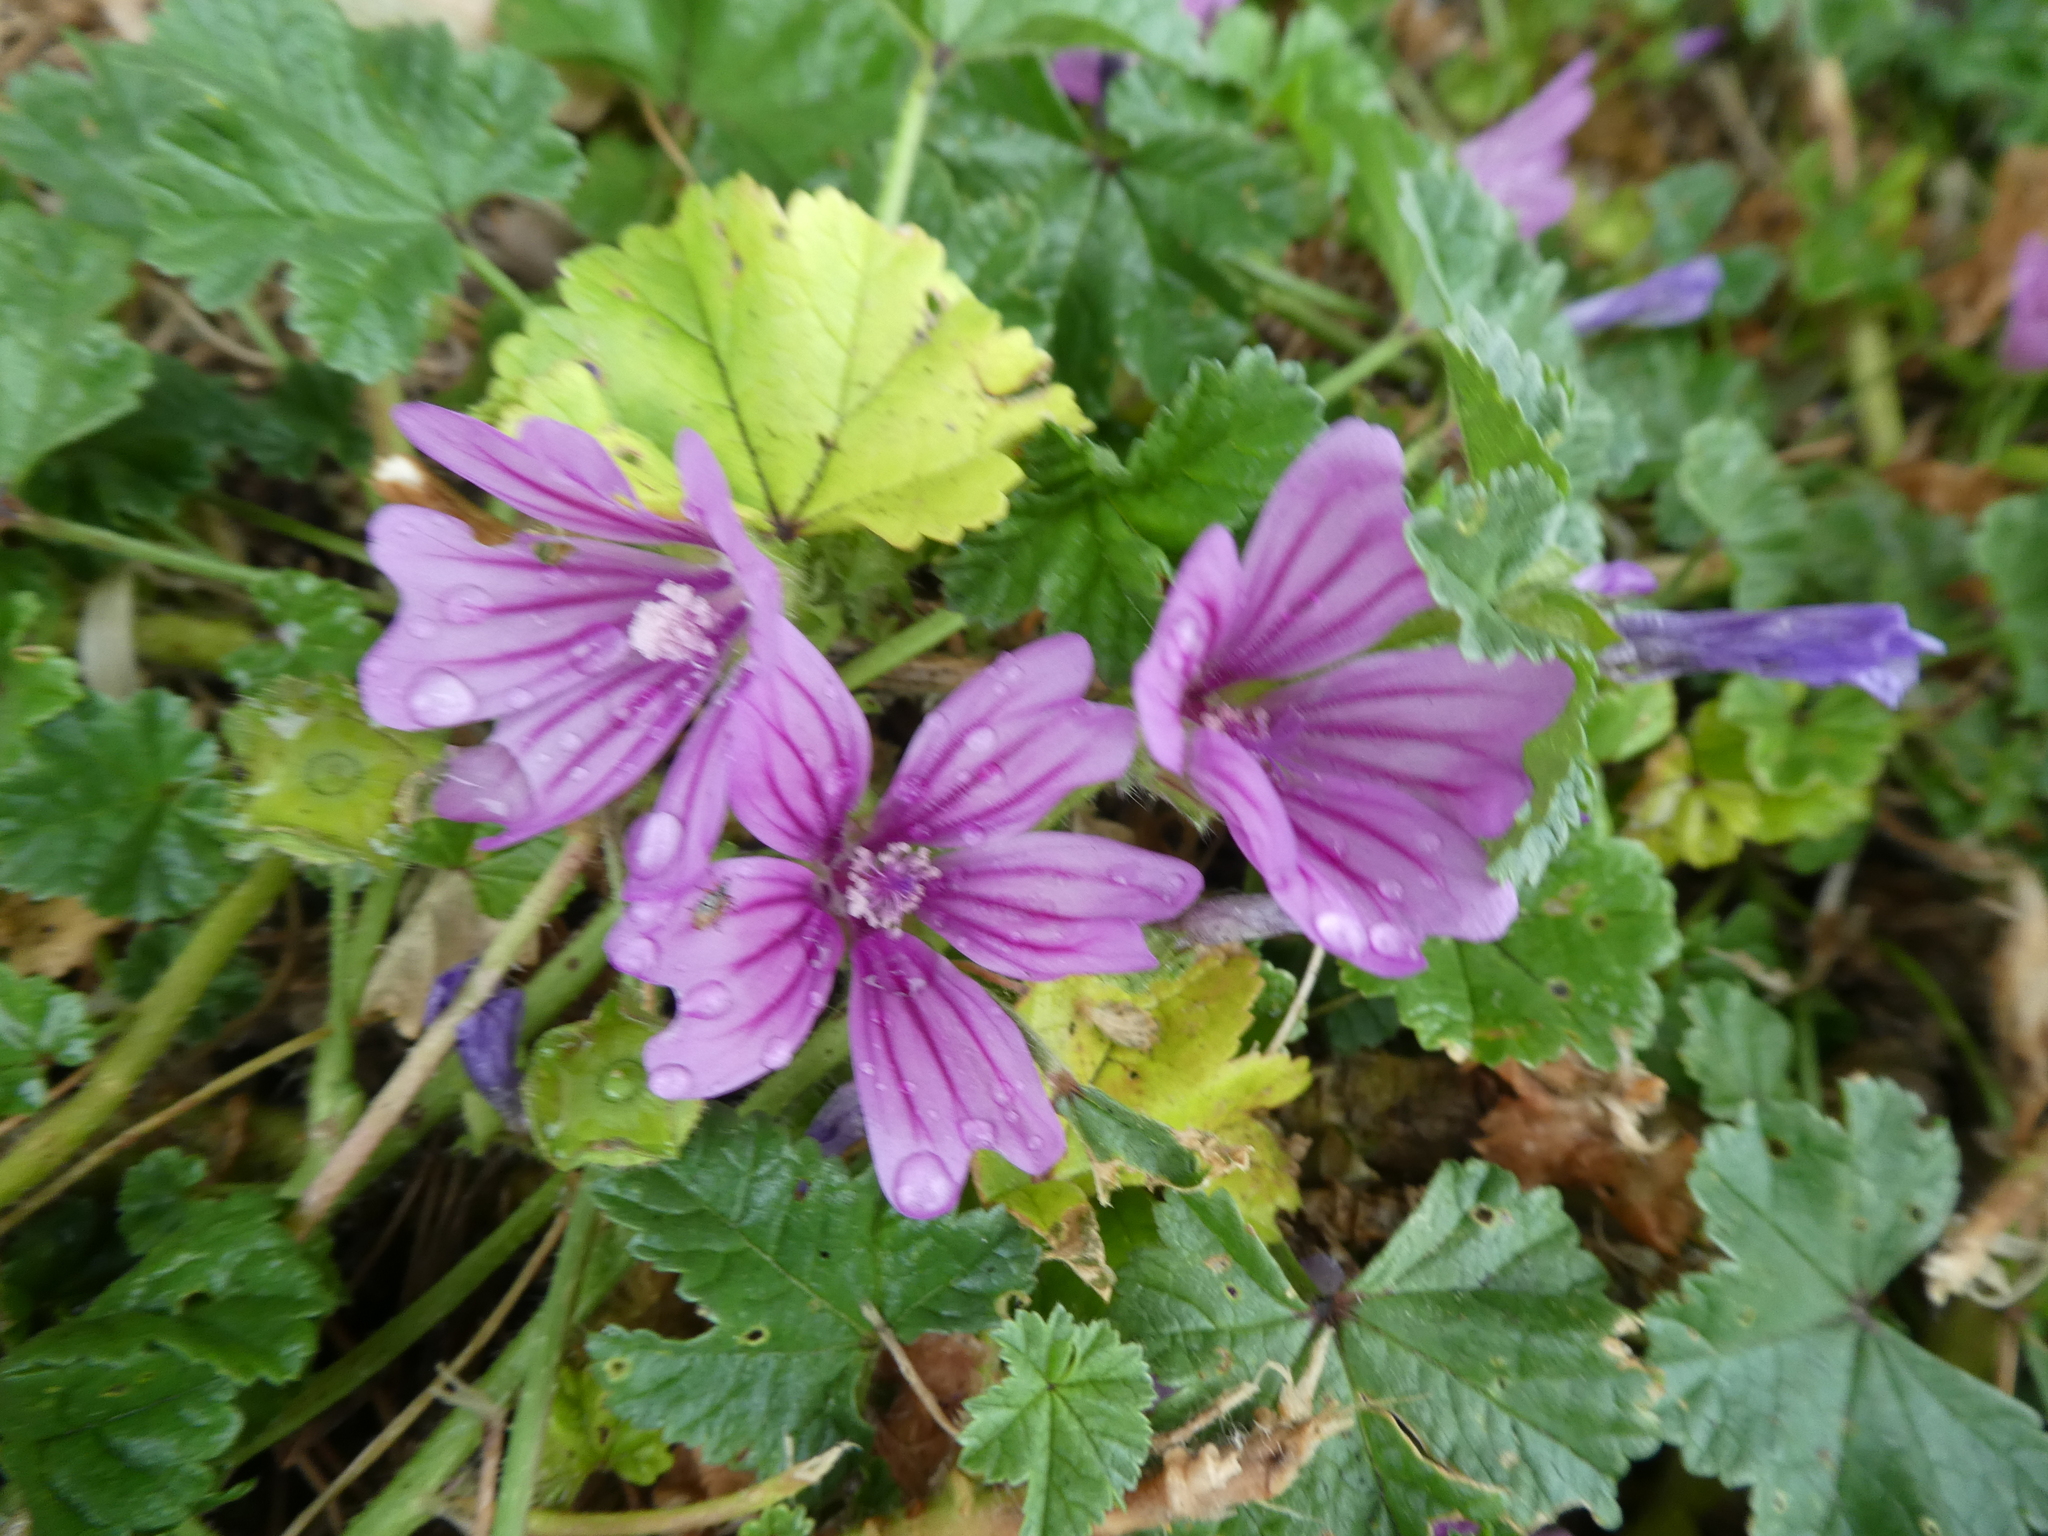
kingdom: Plantae
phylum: Tracheophyta
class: Magnoliopsida
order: Malvales
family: Malvaceae
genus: Malva
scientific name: Malva sylvestris
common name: Common mallow
